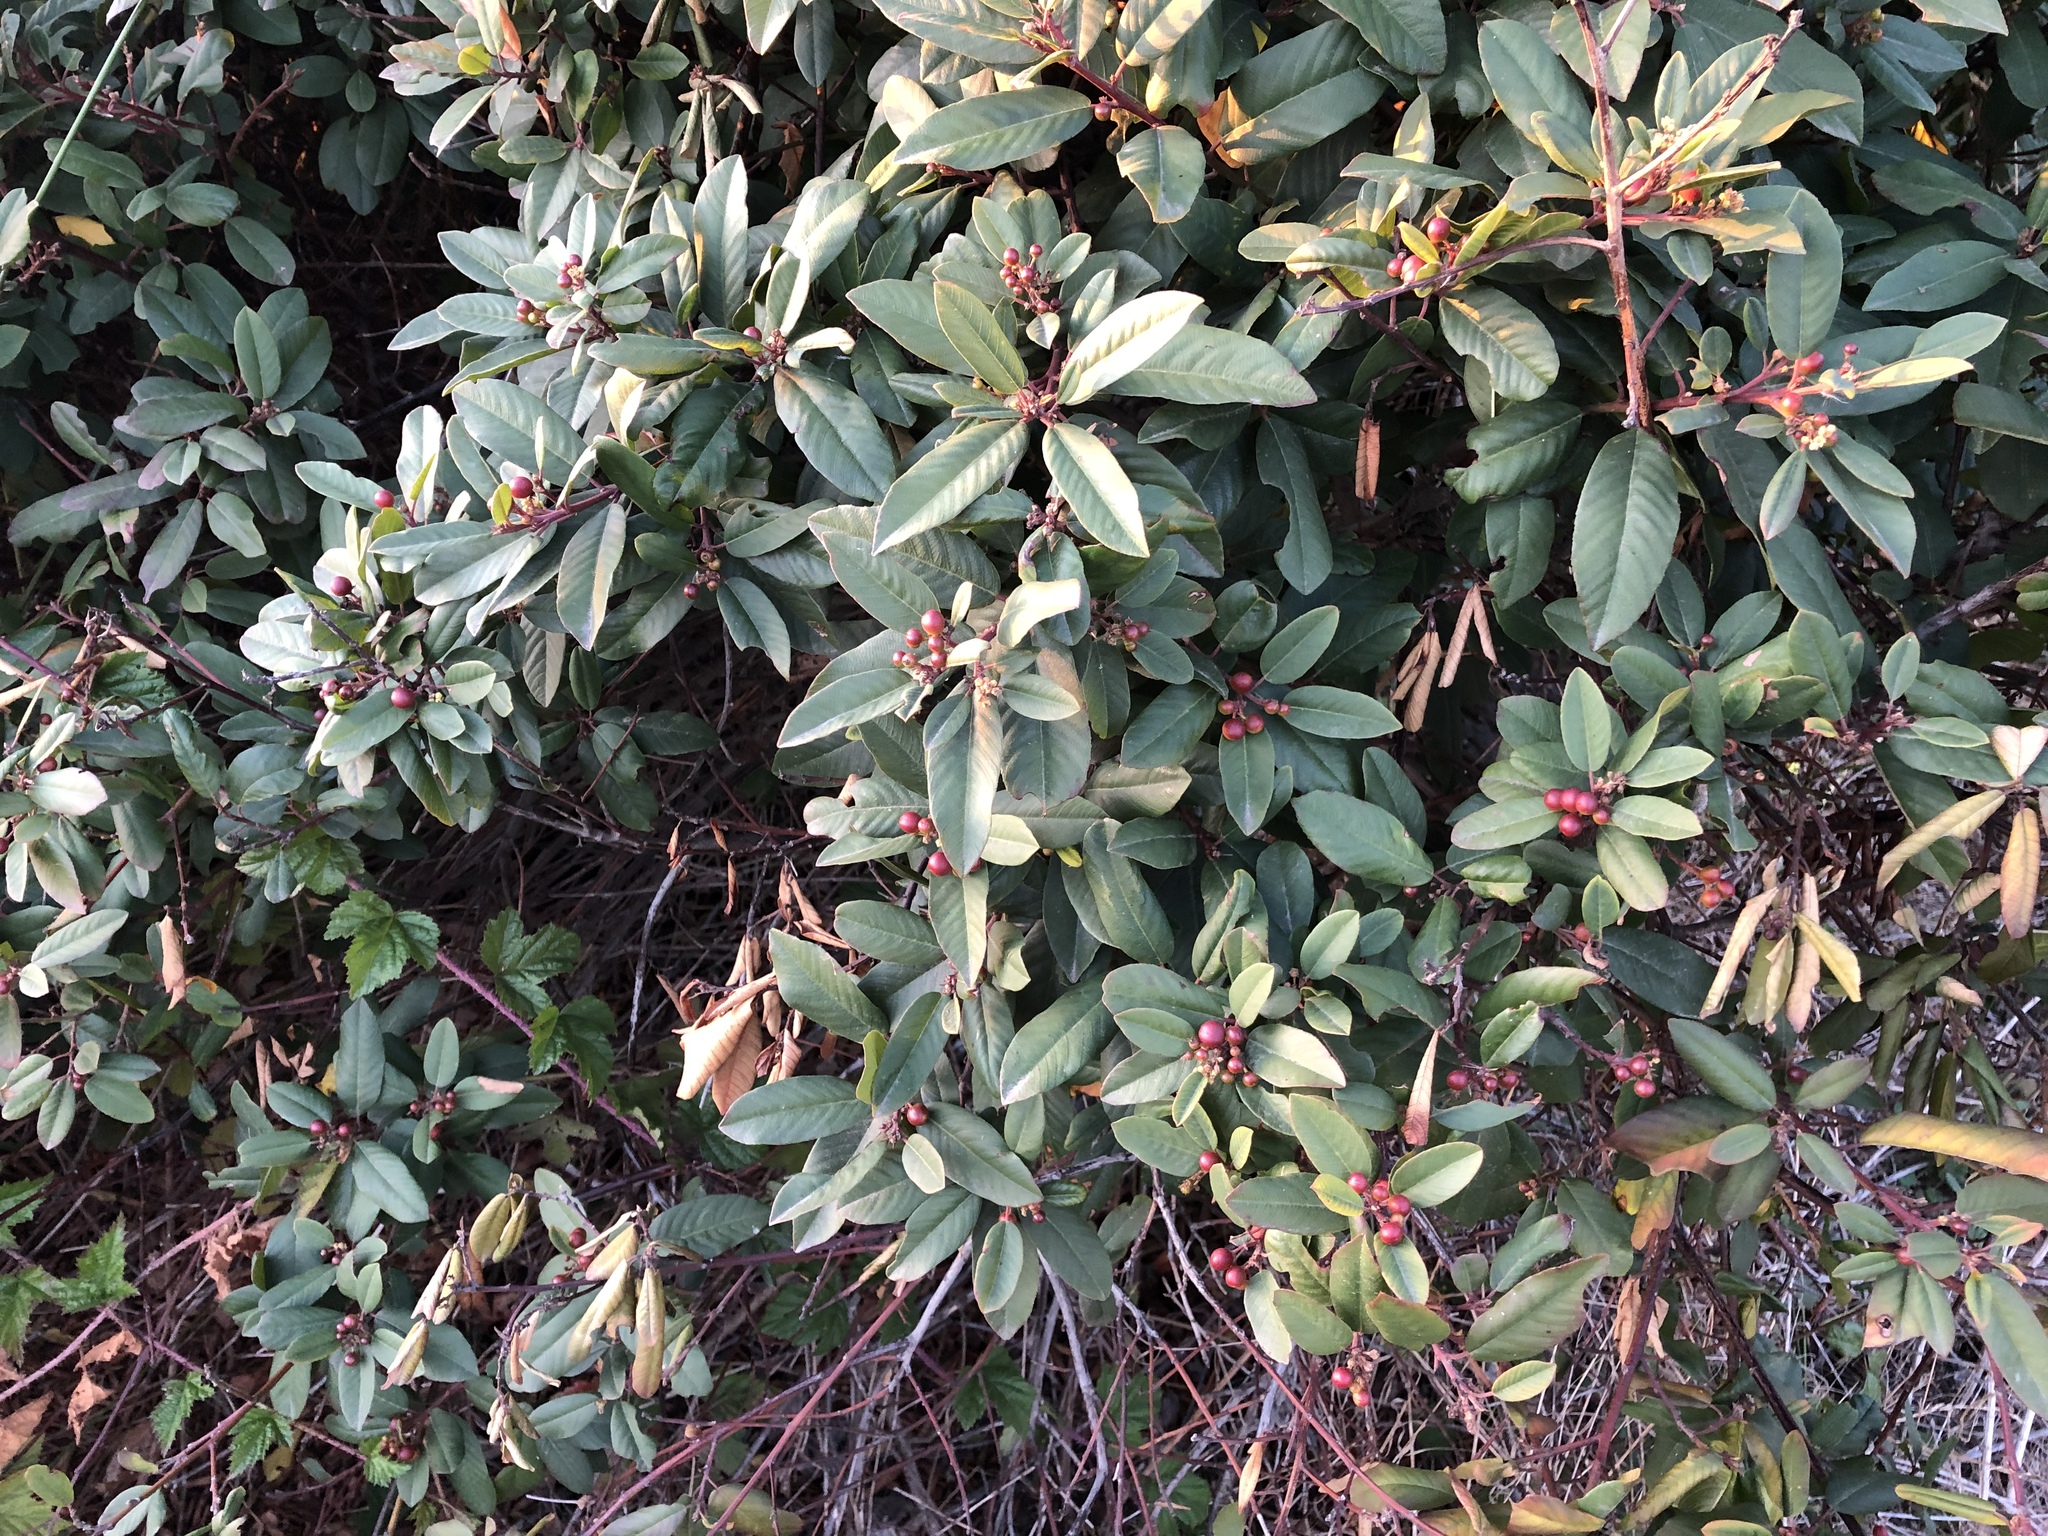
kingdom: Plantae
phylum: Tracheophyta
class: Magnoliopsida
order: Rosales
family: Rhamnaceae
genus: Frangula
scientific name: Frangula californica
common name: California buckthorn
